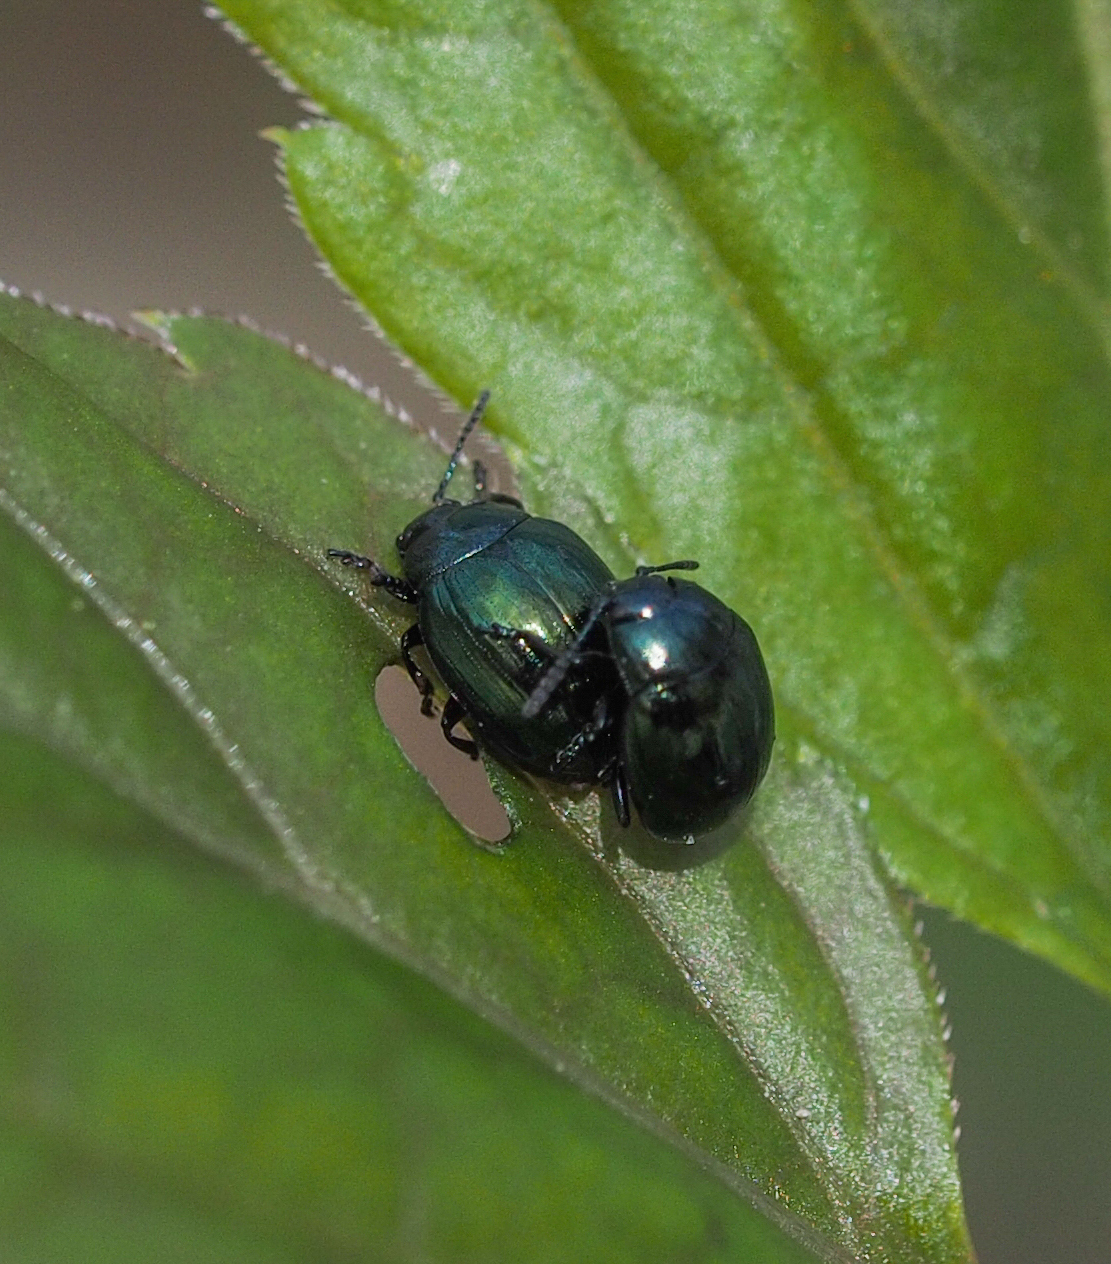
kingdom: Animalia
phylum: Arthropoda
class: Insecta
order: Coleoptera
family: Chrysomelidae
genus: Phaedon
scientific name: Phaedon armoraciae
